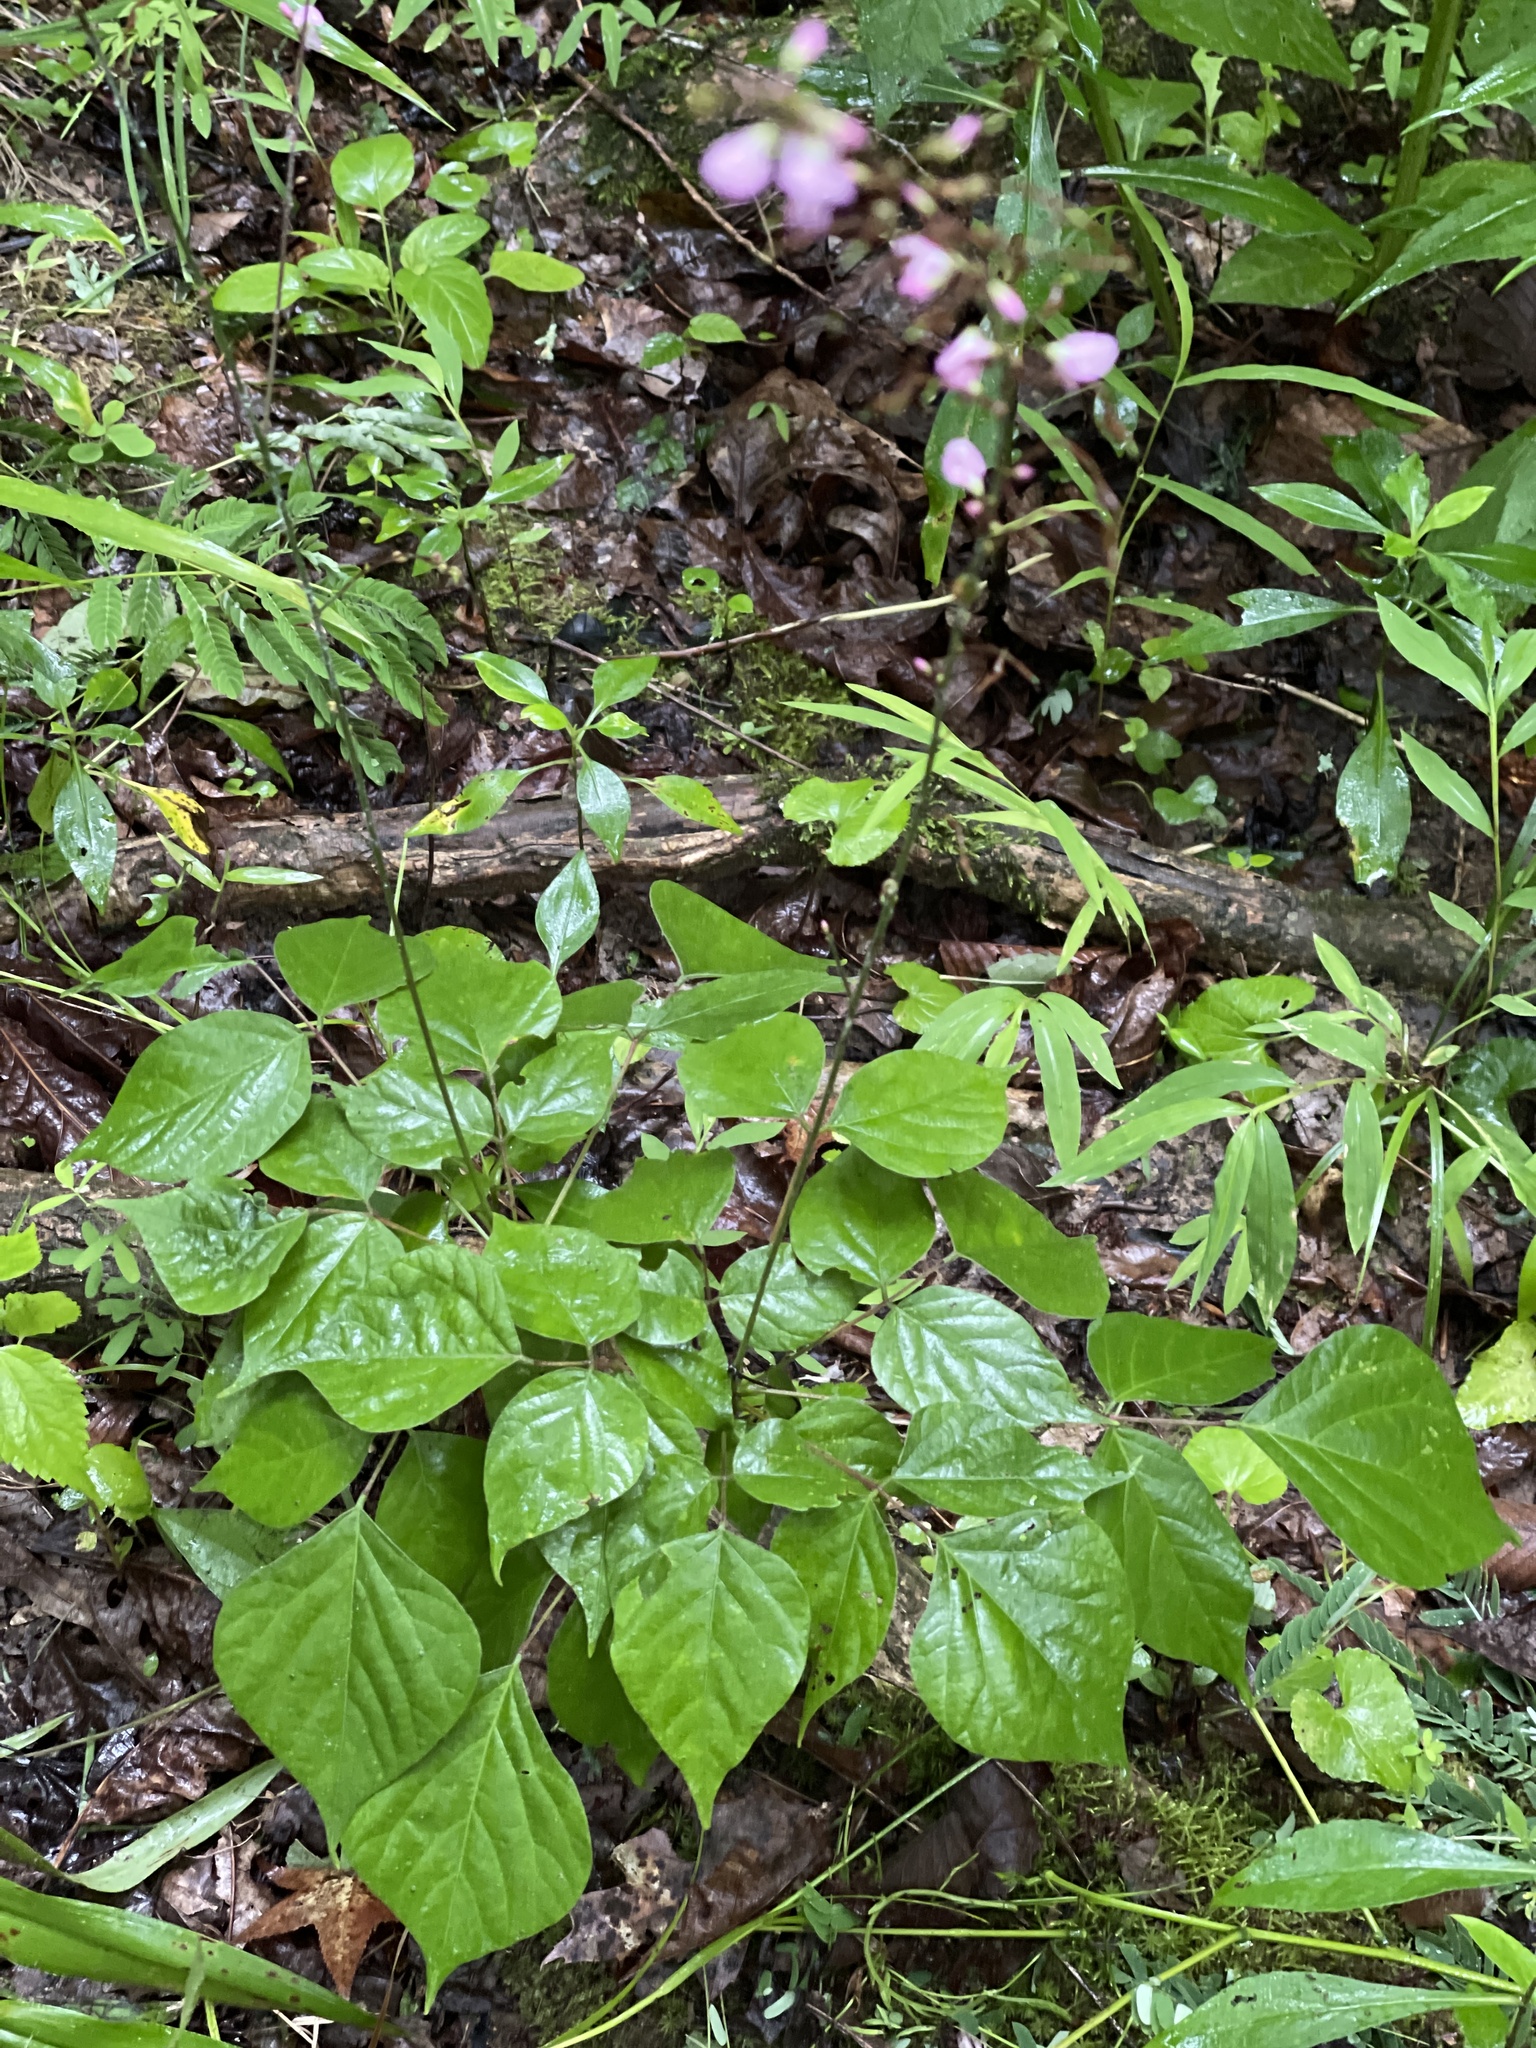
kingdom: Plantae
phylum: Tracheophyta
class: Magnoliopsida
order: Fabales
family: Fabaceae
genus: Hylodesmum
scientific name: Hylodesmum glutinosum
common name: Clustered-leaved tick-trefoil
